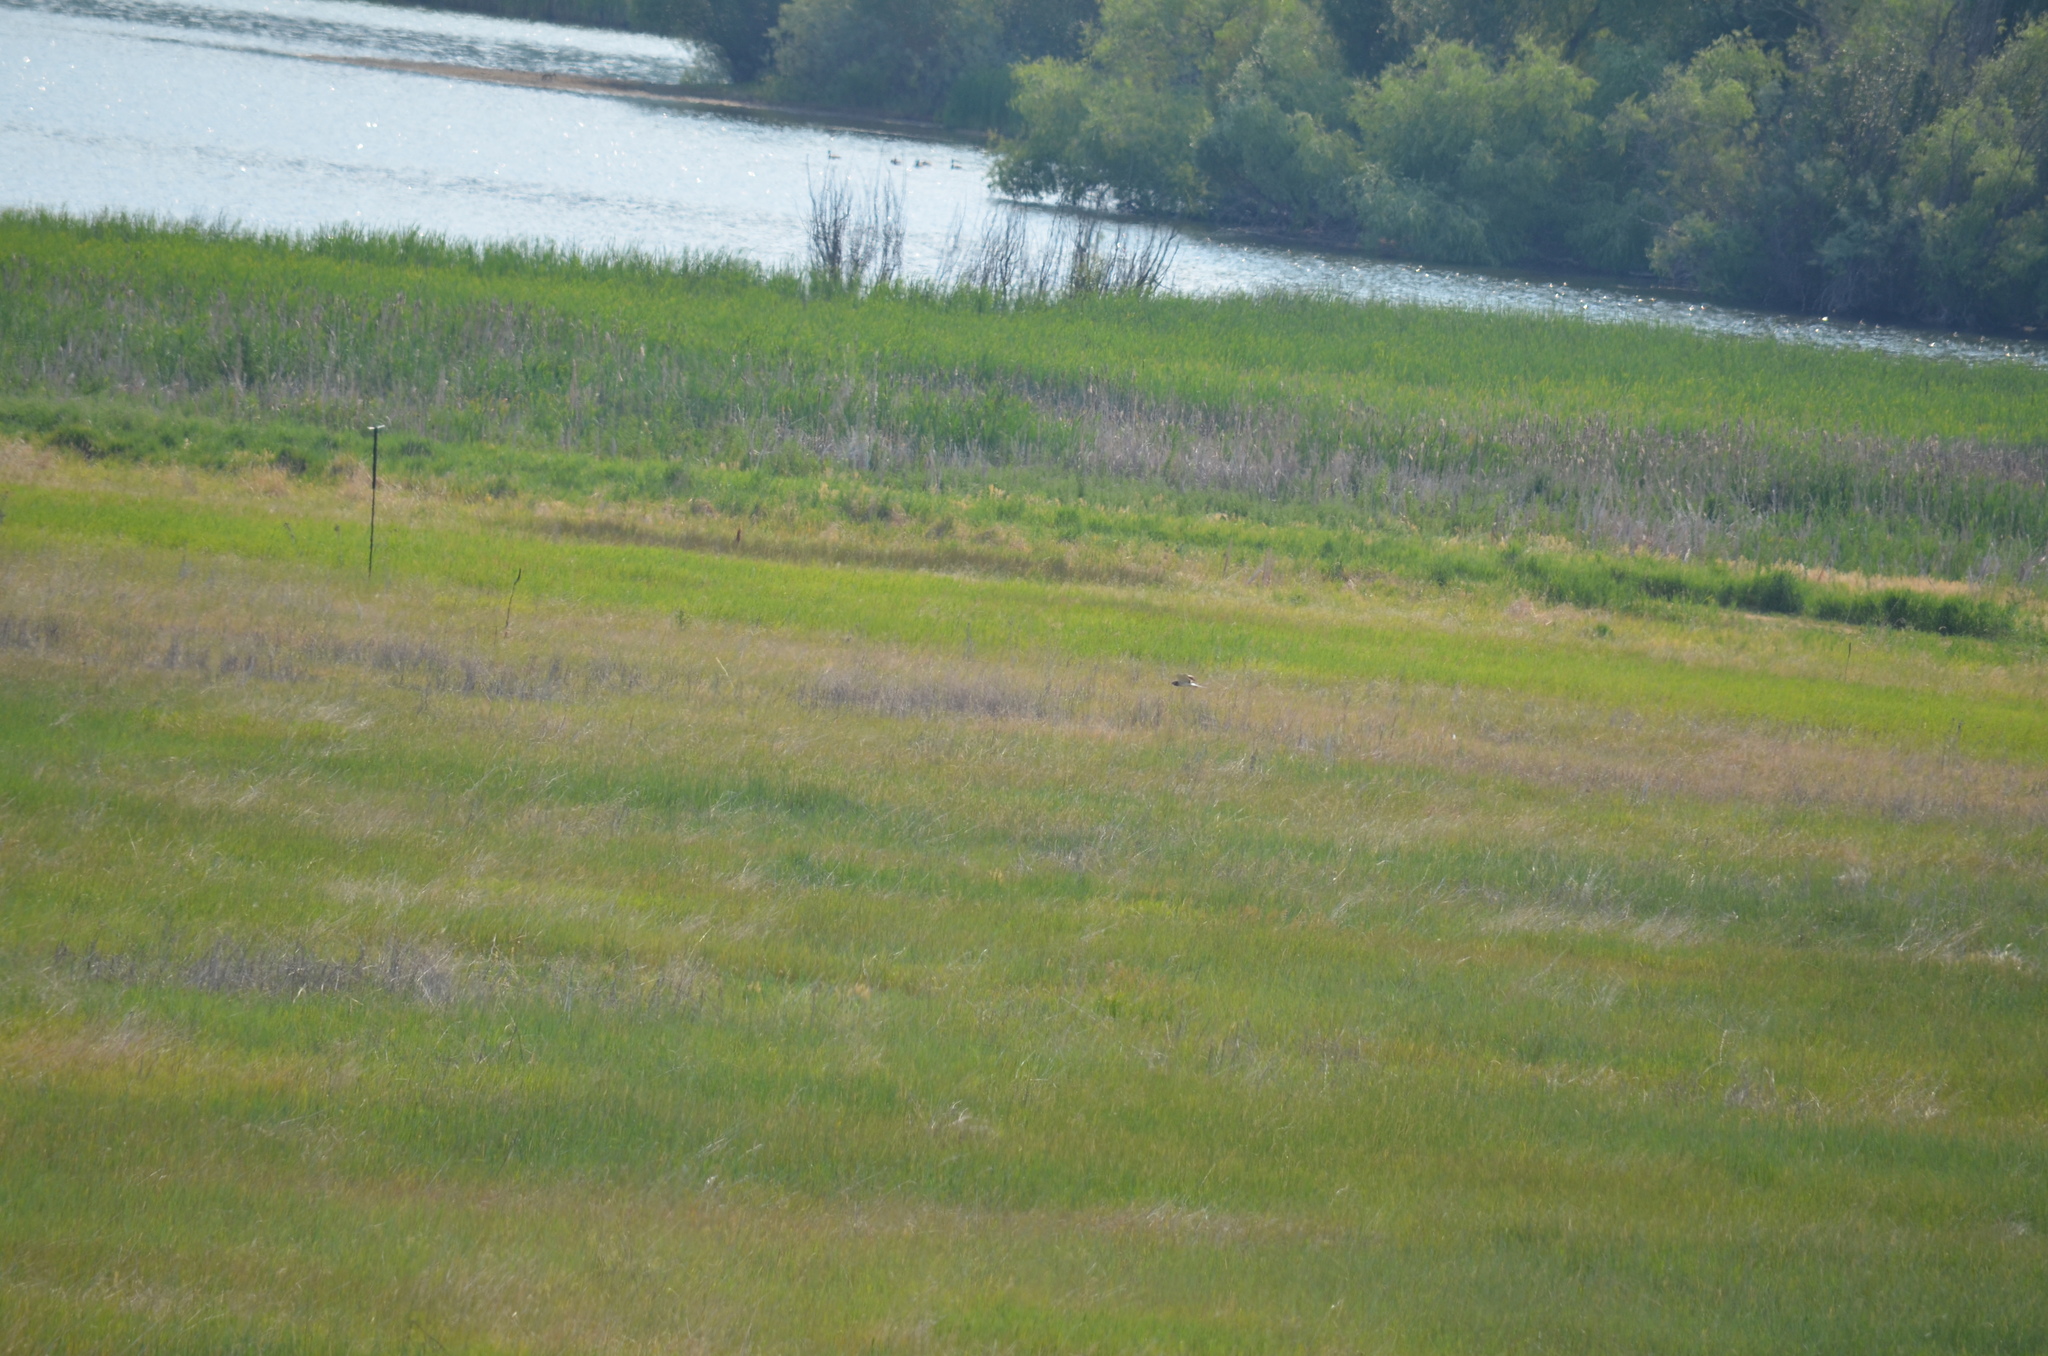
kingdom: Animalia
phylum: Chordata
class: Aves
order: Accipitriformes
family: Accipitridae
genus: Circus
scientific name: Circus cyaneus
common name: Hen harrier
